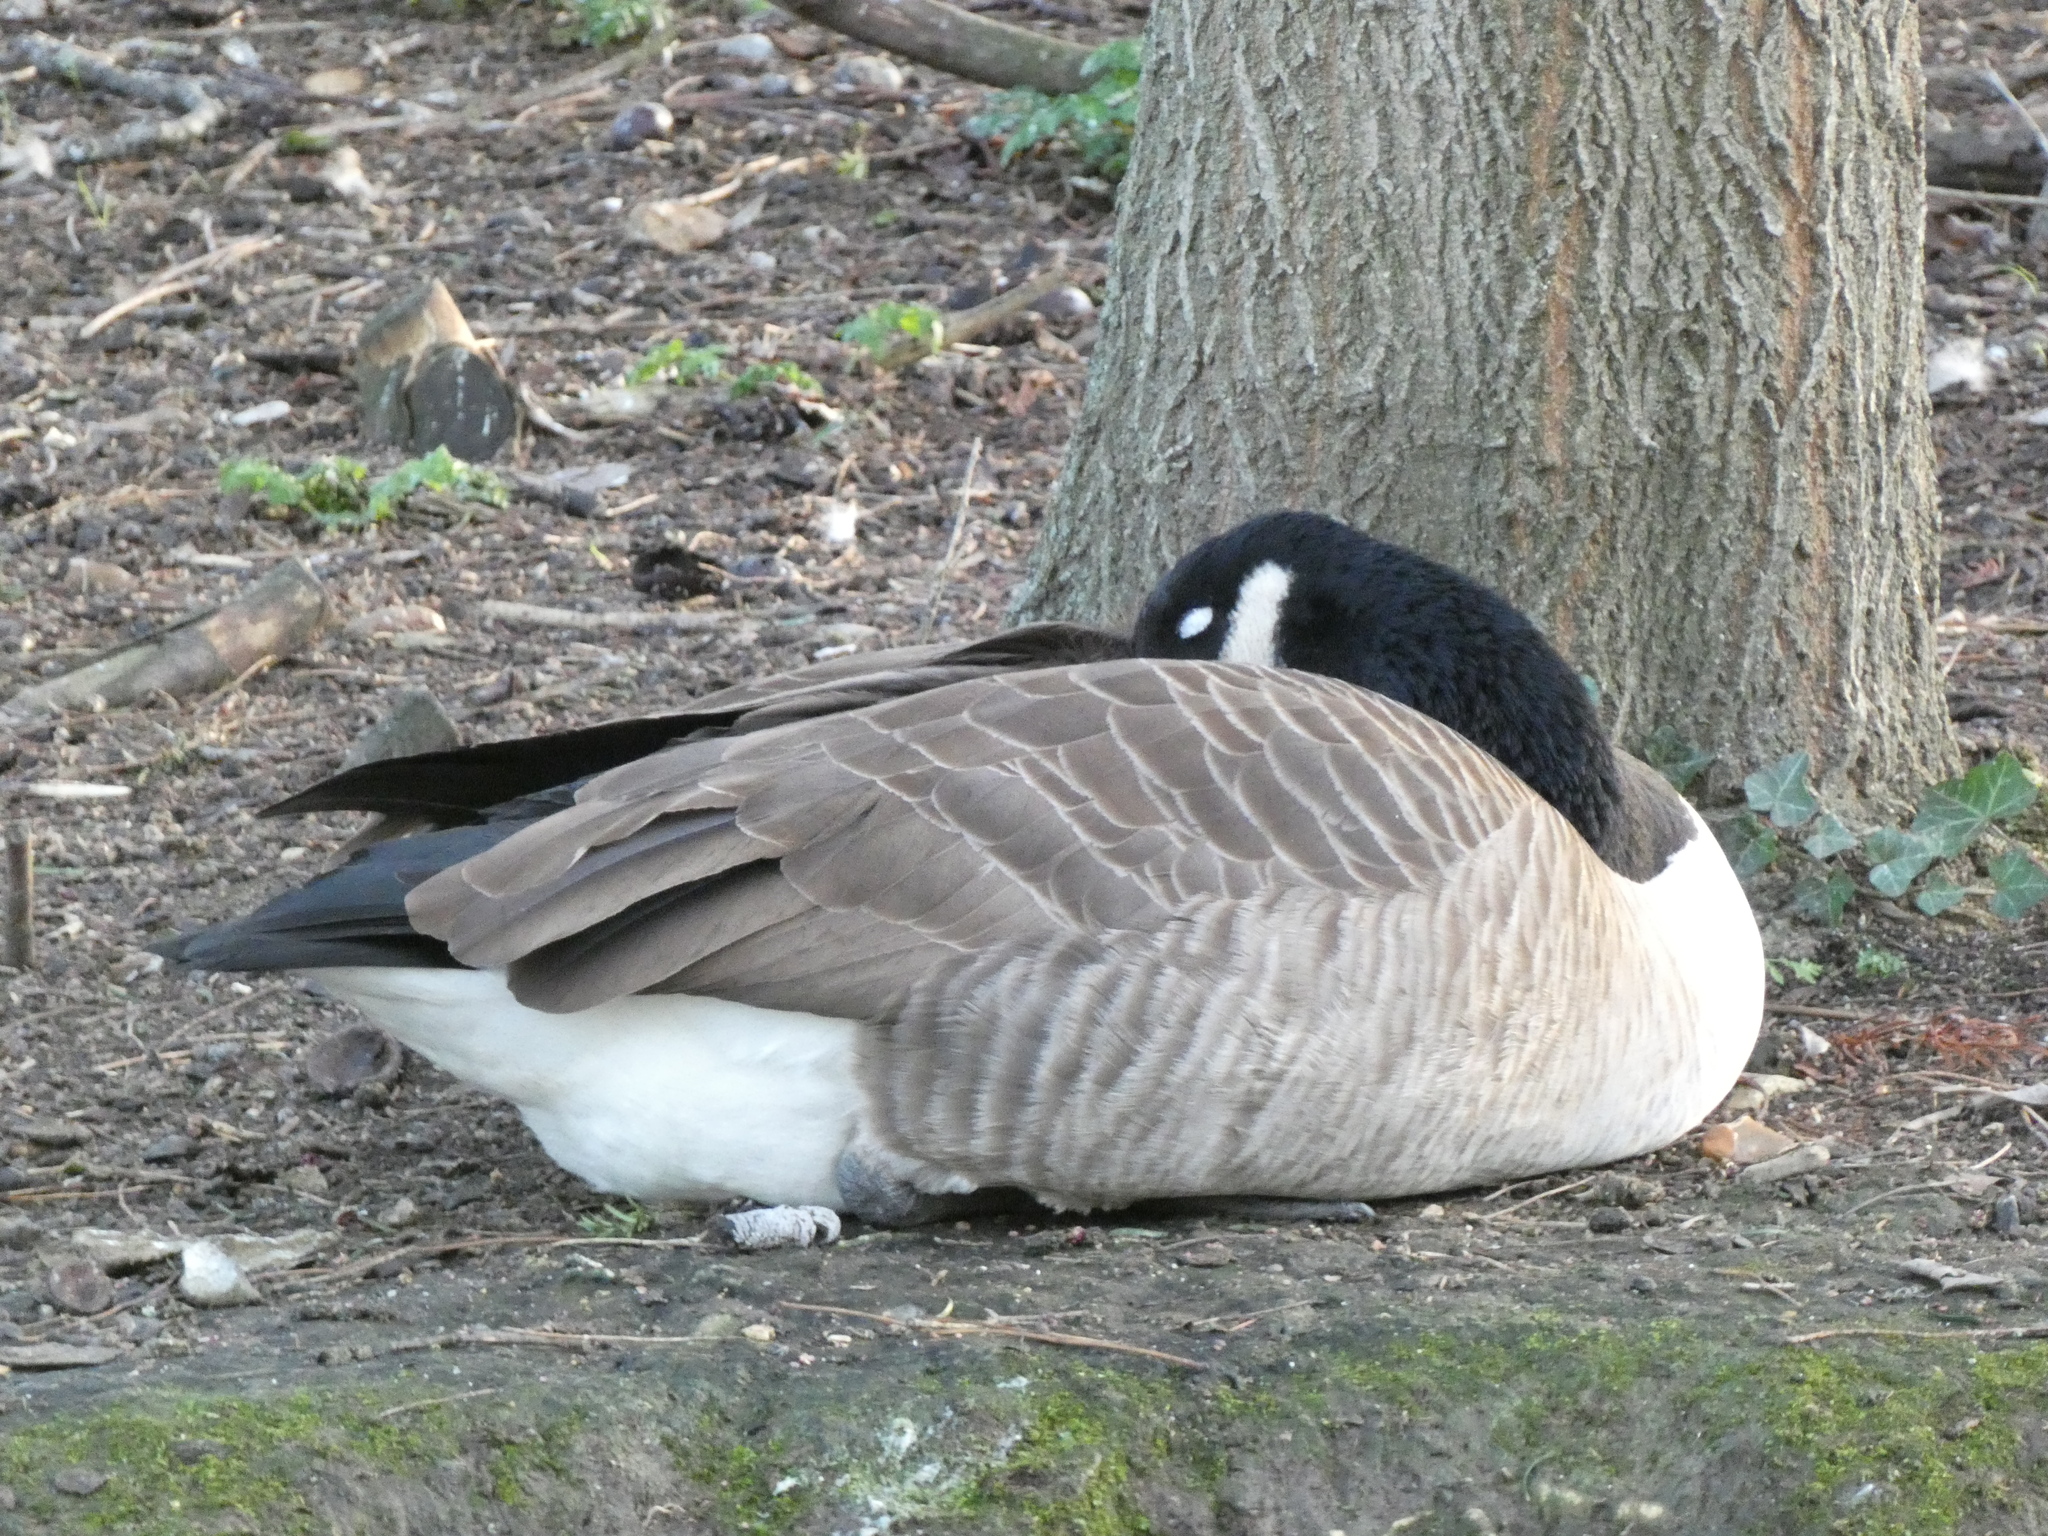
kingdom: Animalia
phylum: Chordata
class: Aves
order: Anseriformes
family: Anatidae
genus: Branta
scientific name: Branta canadensis
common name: Canada goose
